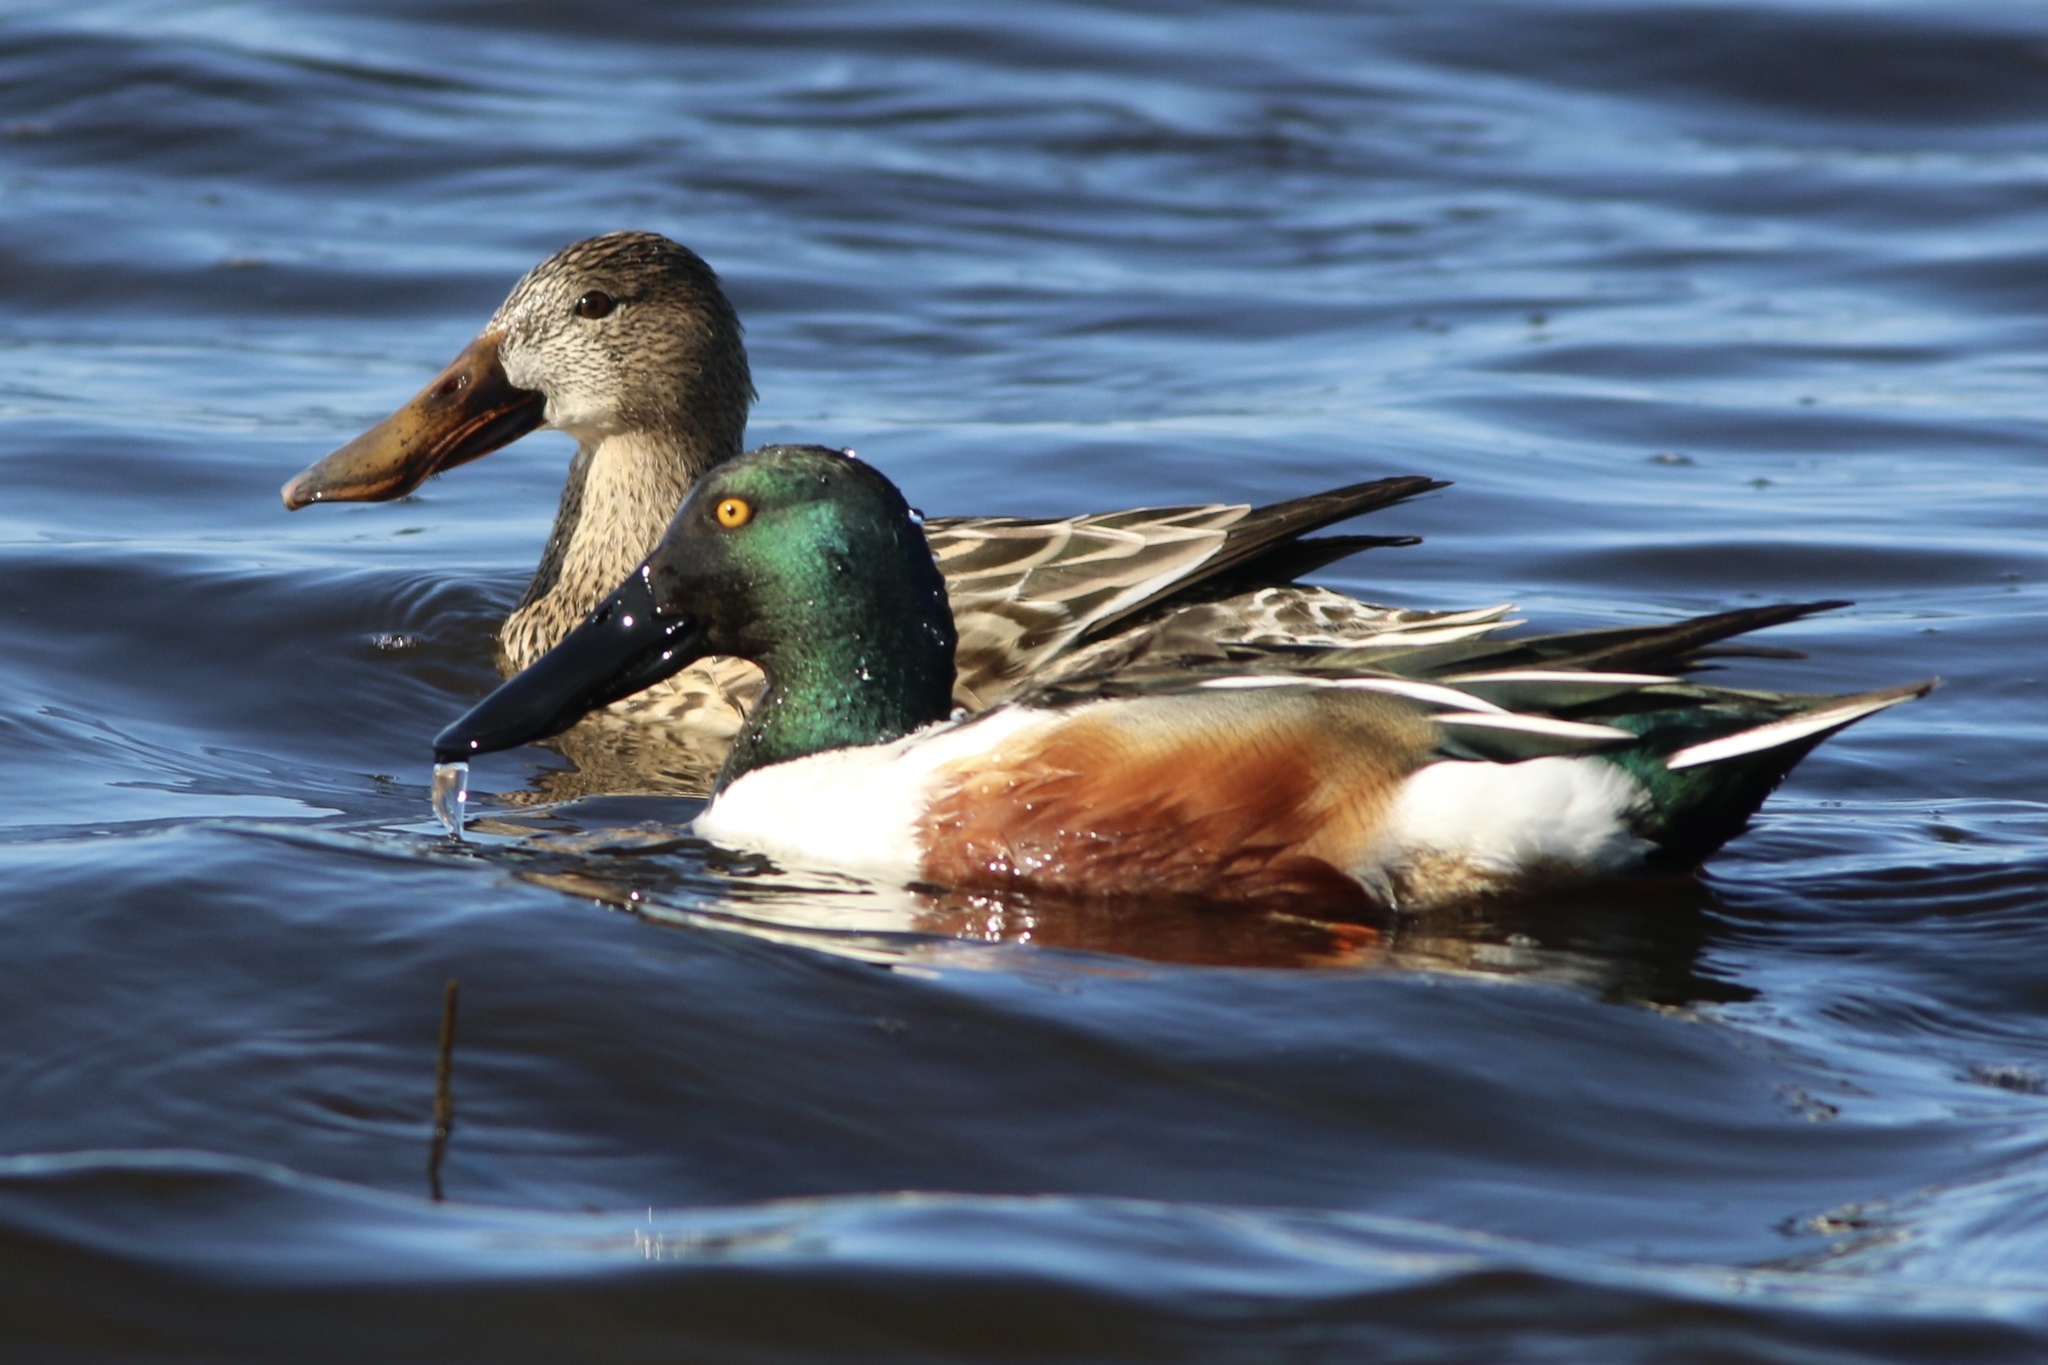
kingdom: Animalia
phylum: Chordata
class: Aves
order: Anseriformes
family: Anatidae
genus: Spatula
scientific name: Spatula clypeata
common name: Northern shoveler
